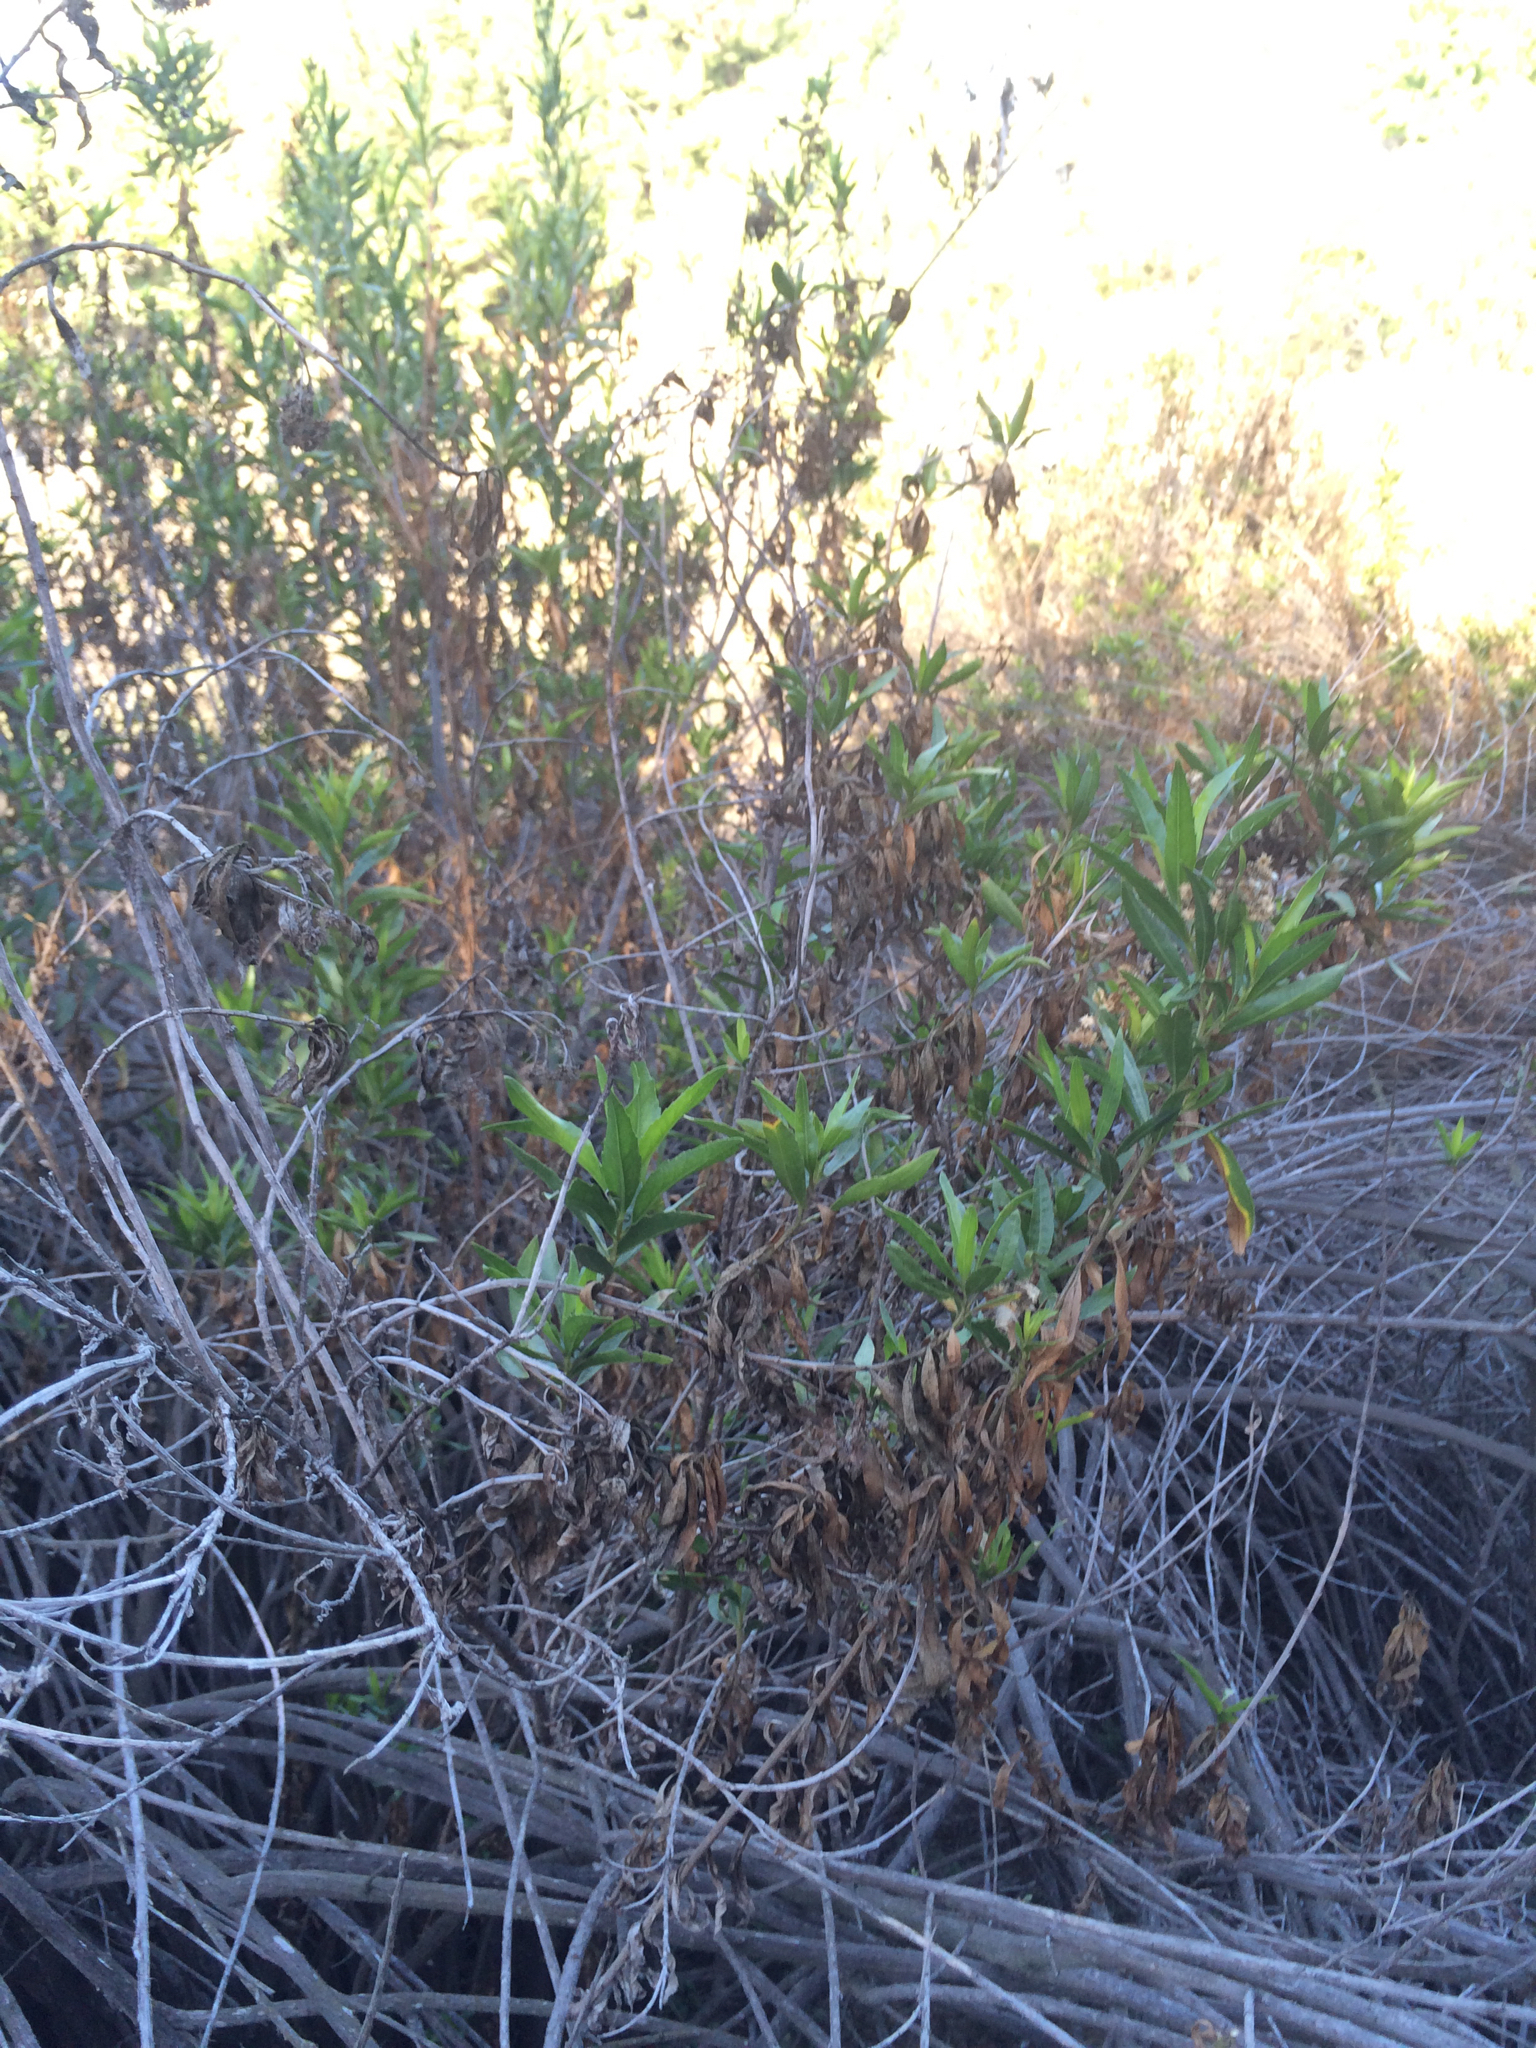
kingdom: Plantae
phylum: Tracheophyta
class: Magnoliopsida
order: Asterales
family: Asteraceae
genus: Baccharis
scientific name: Baccharis salicifolia
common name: Sticky baccharis
